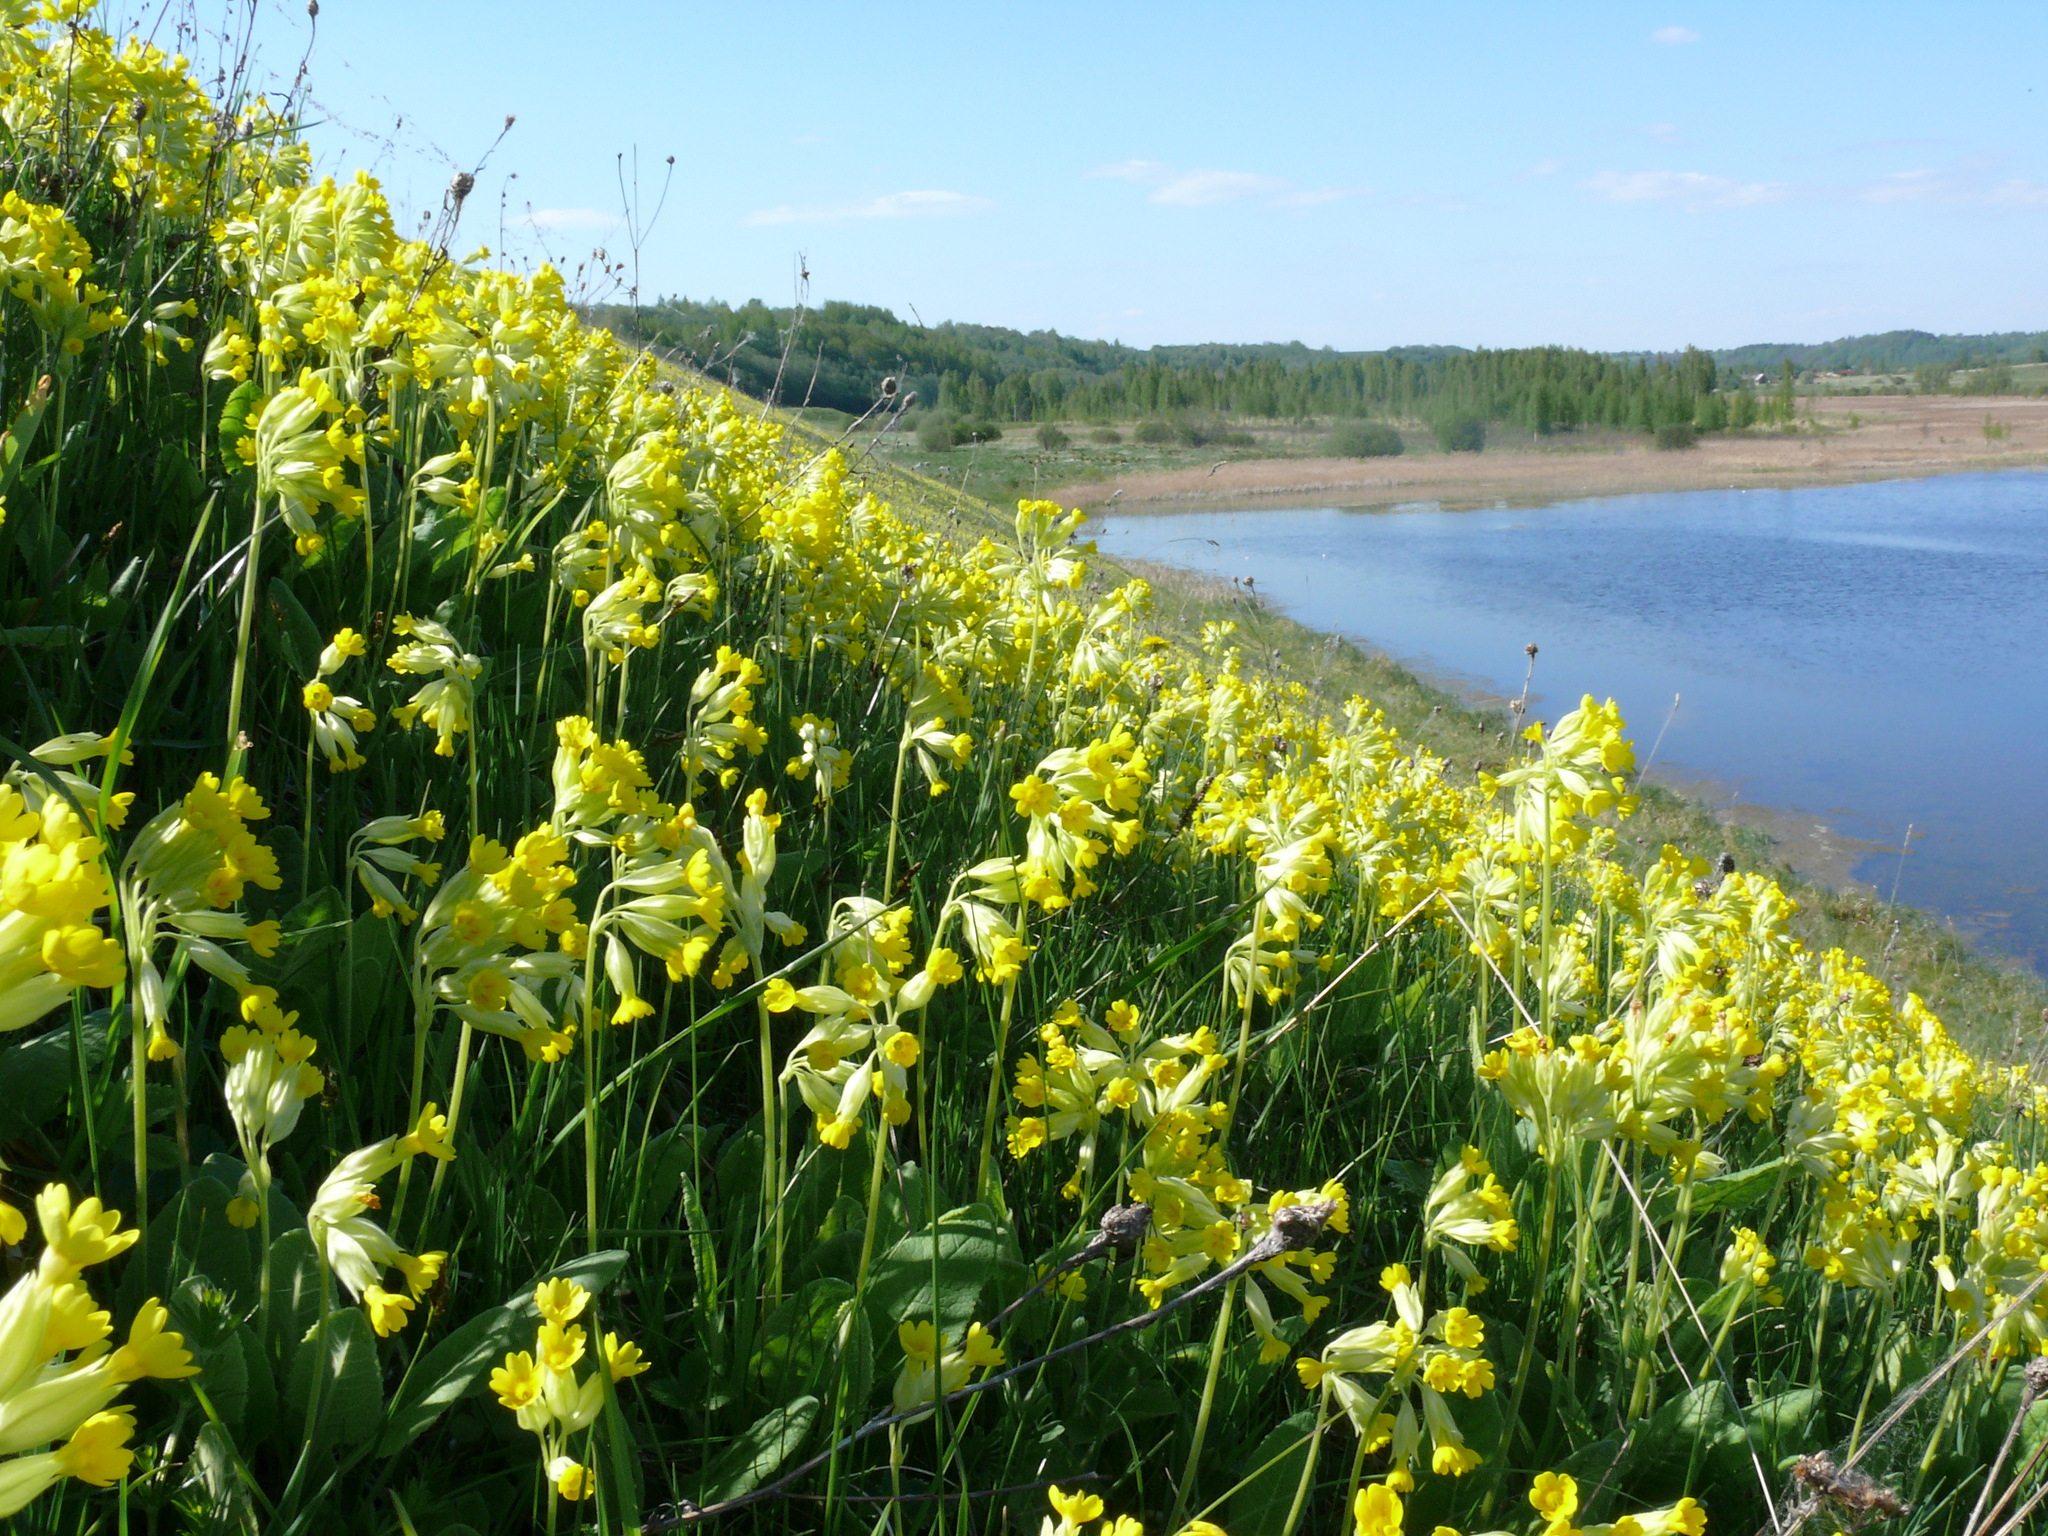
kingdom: Plantae
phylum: Tracheophyta
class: Magnoliopsida
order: Ericales
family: Primulaceae
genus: Primula
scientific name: Primula veris
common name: Cowslip
